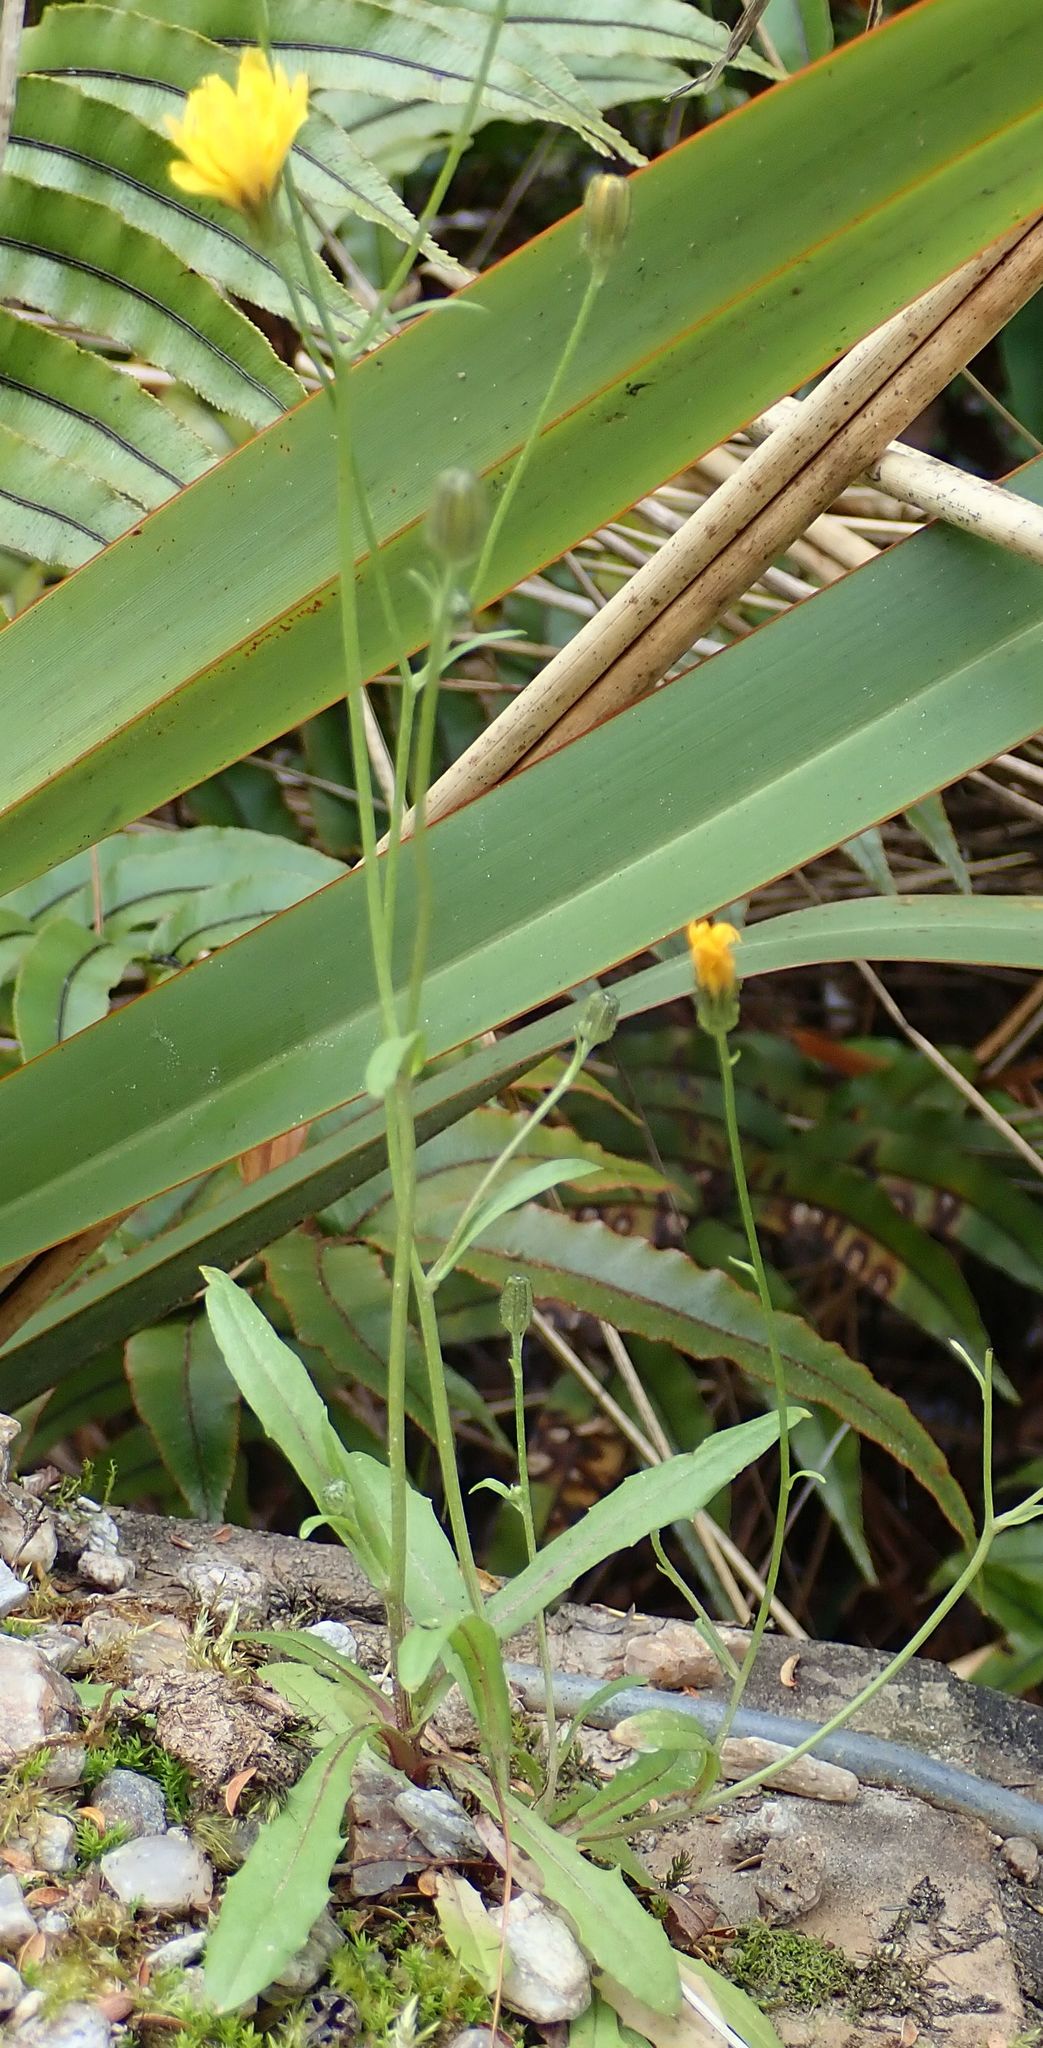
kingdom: Plantae
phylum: Tracheophyta
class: Magnoliopsida
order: Asterales
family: Asteraceae
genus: Crepis
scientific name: Crepis capillaris
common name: Smooth hawksbeard
